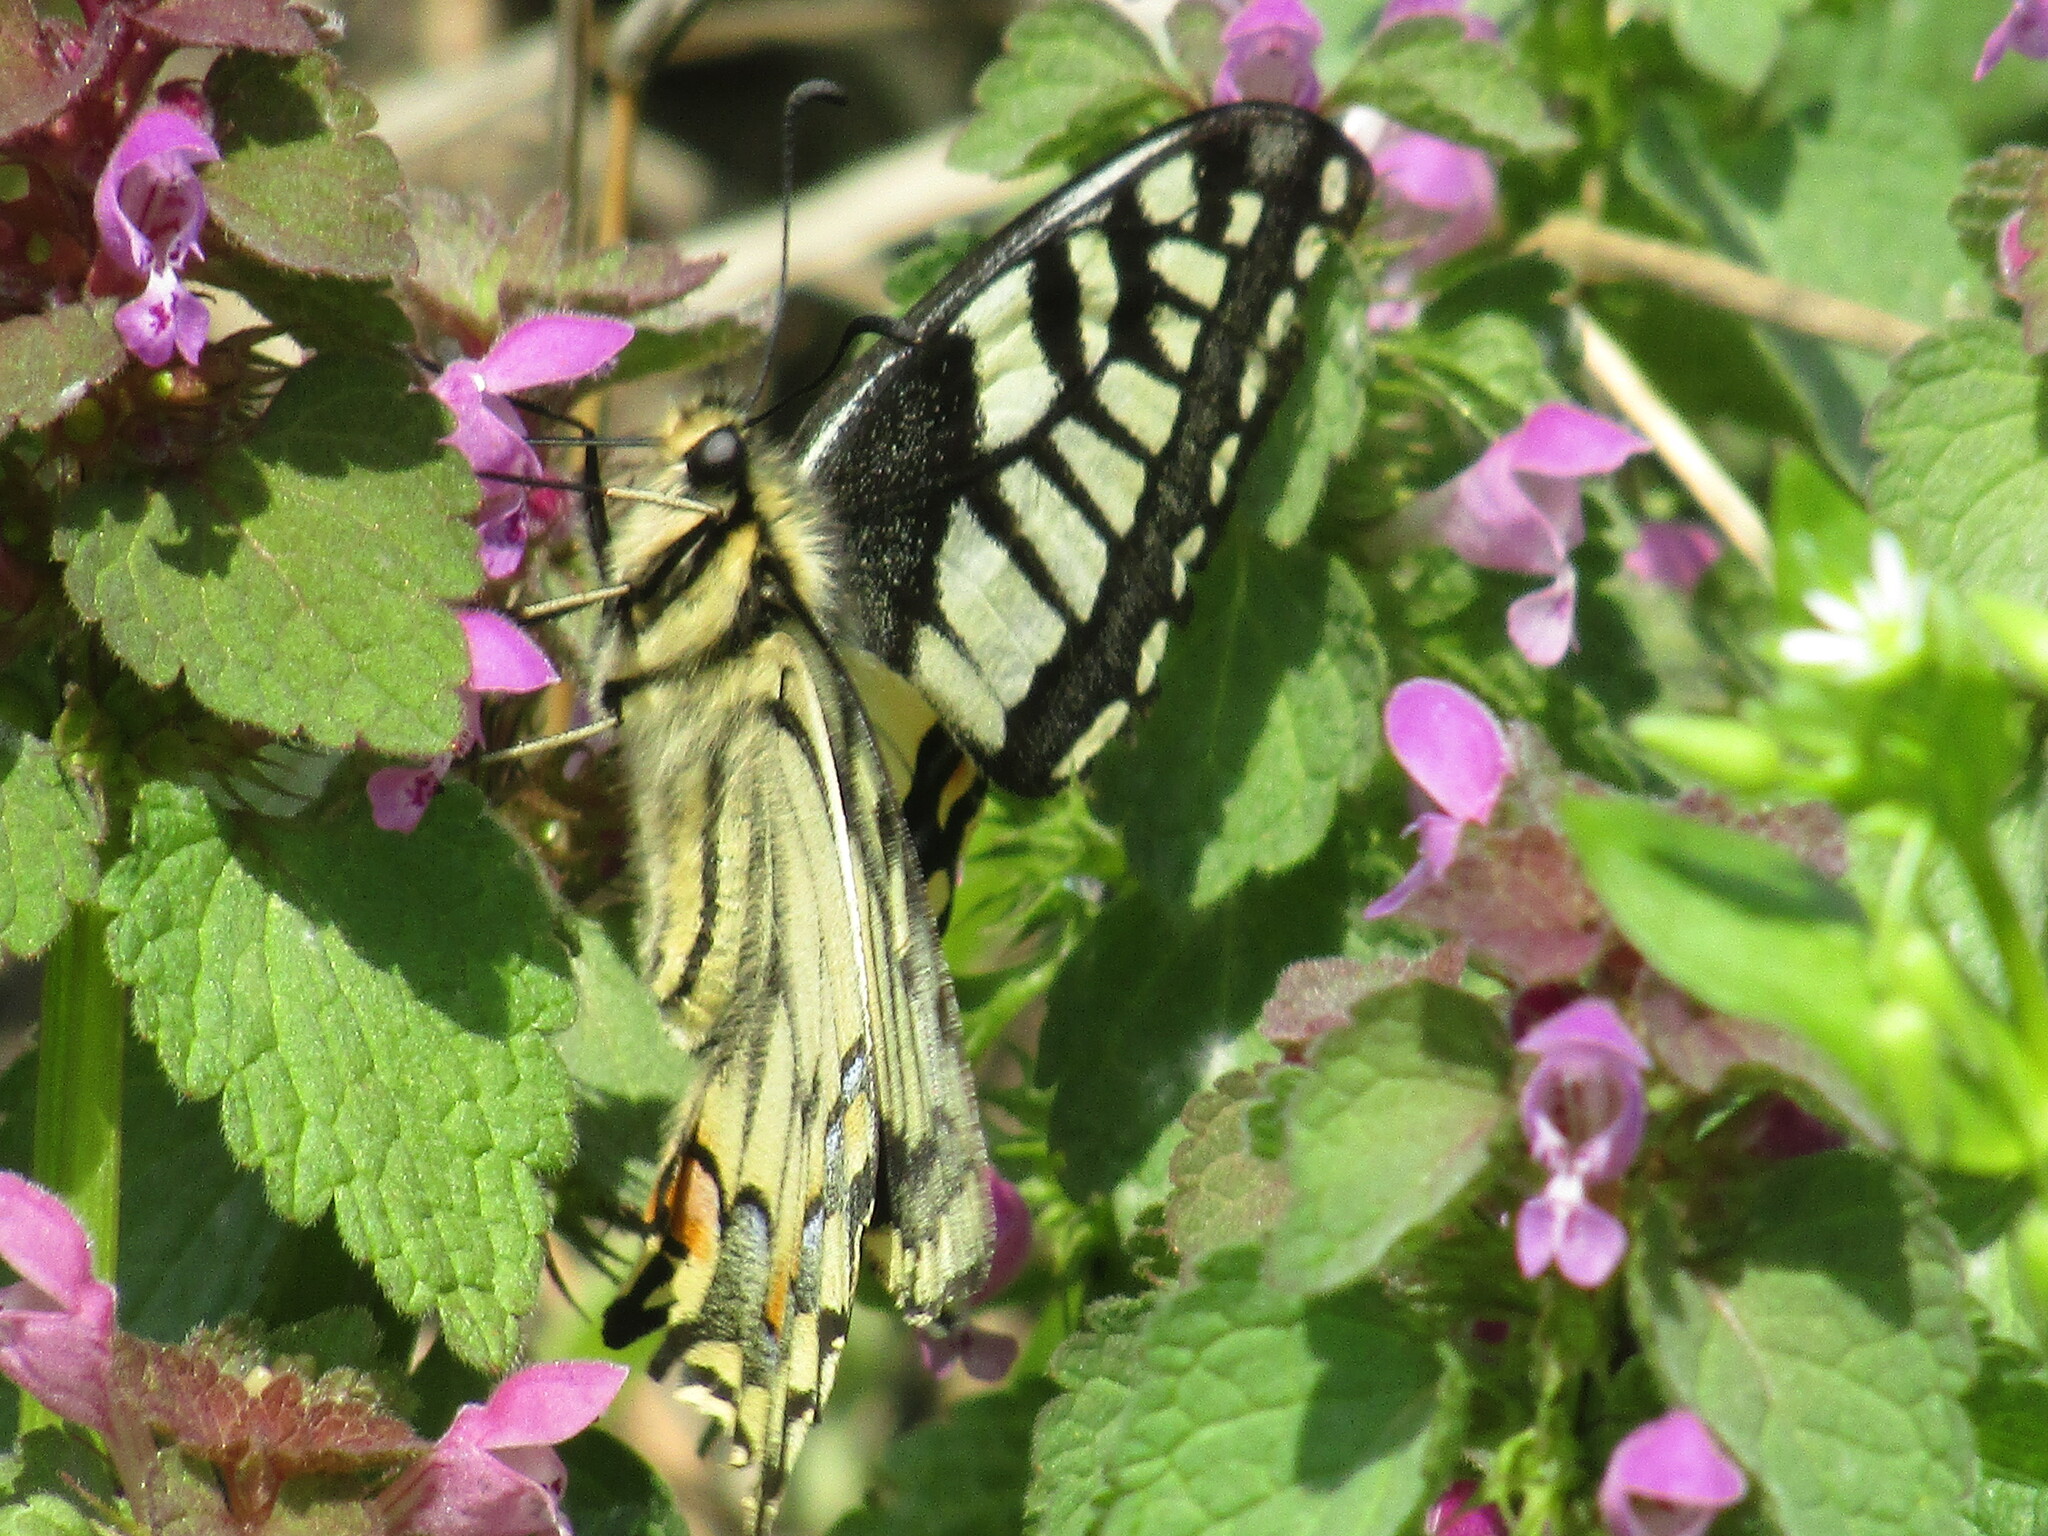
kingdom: Animalia
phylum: Arthropoda
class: Insecta
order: Lepidoptera
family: Papilionidae
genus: Papilio
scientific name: Papilio machaon
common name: Swallowtail
